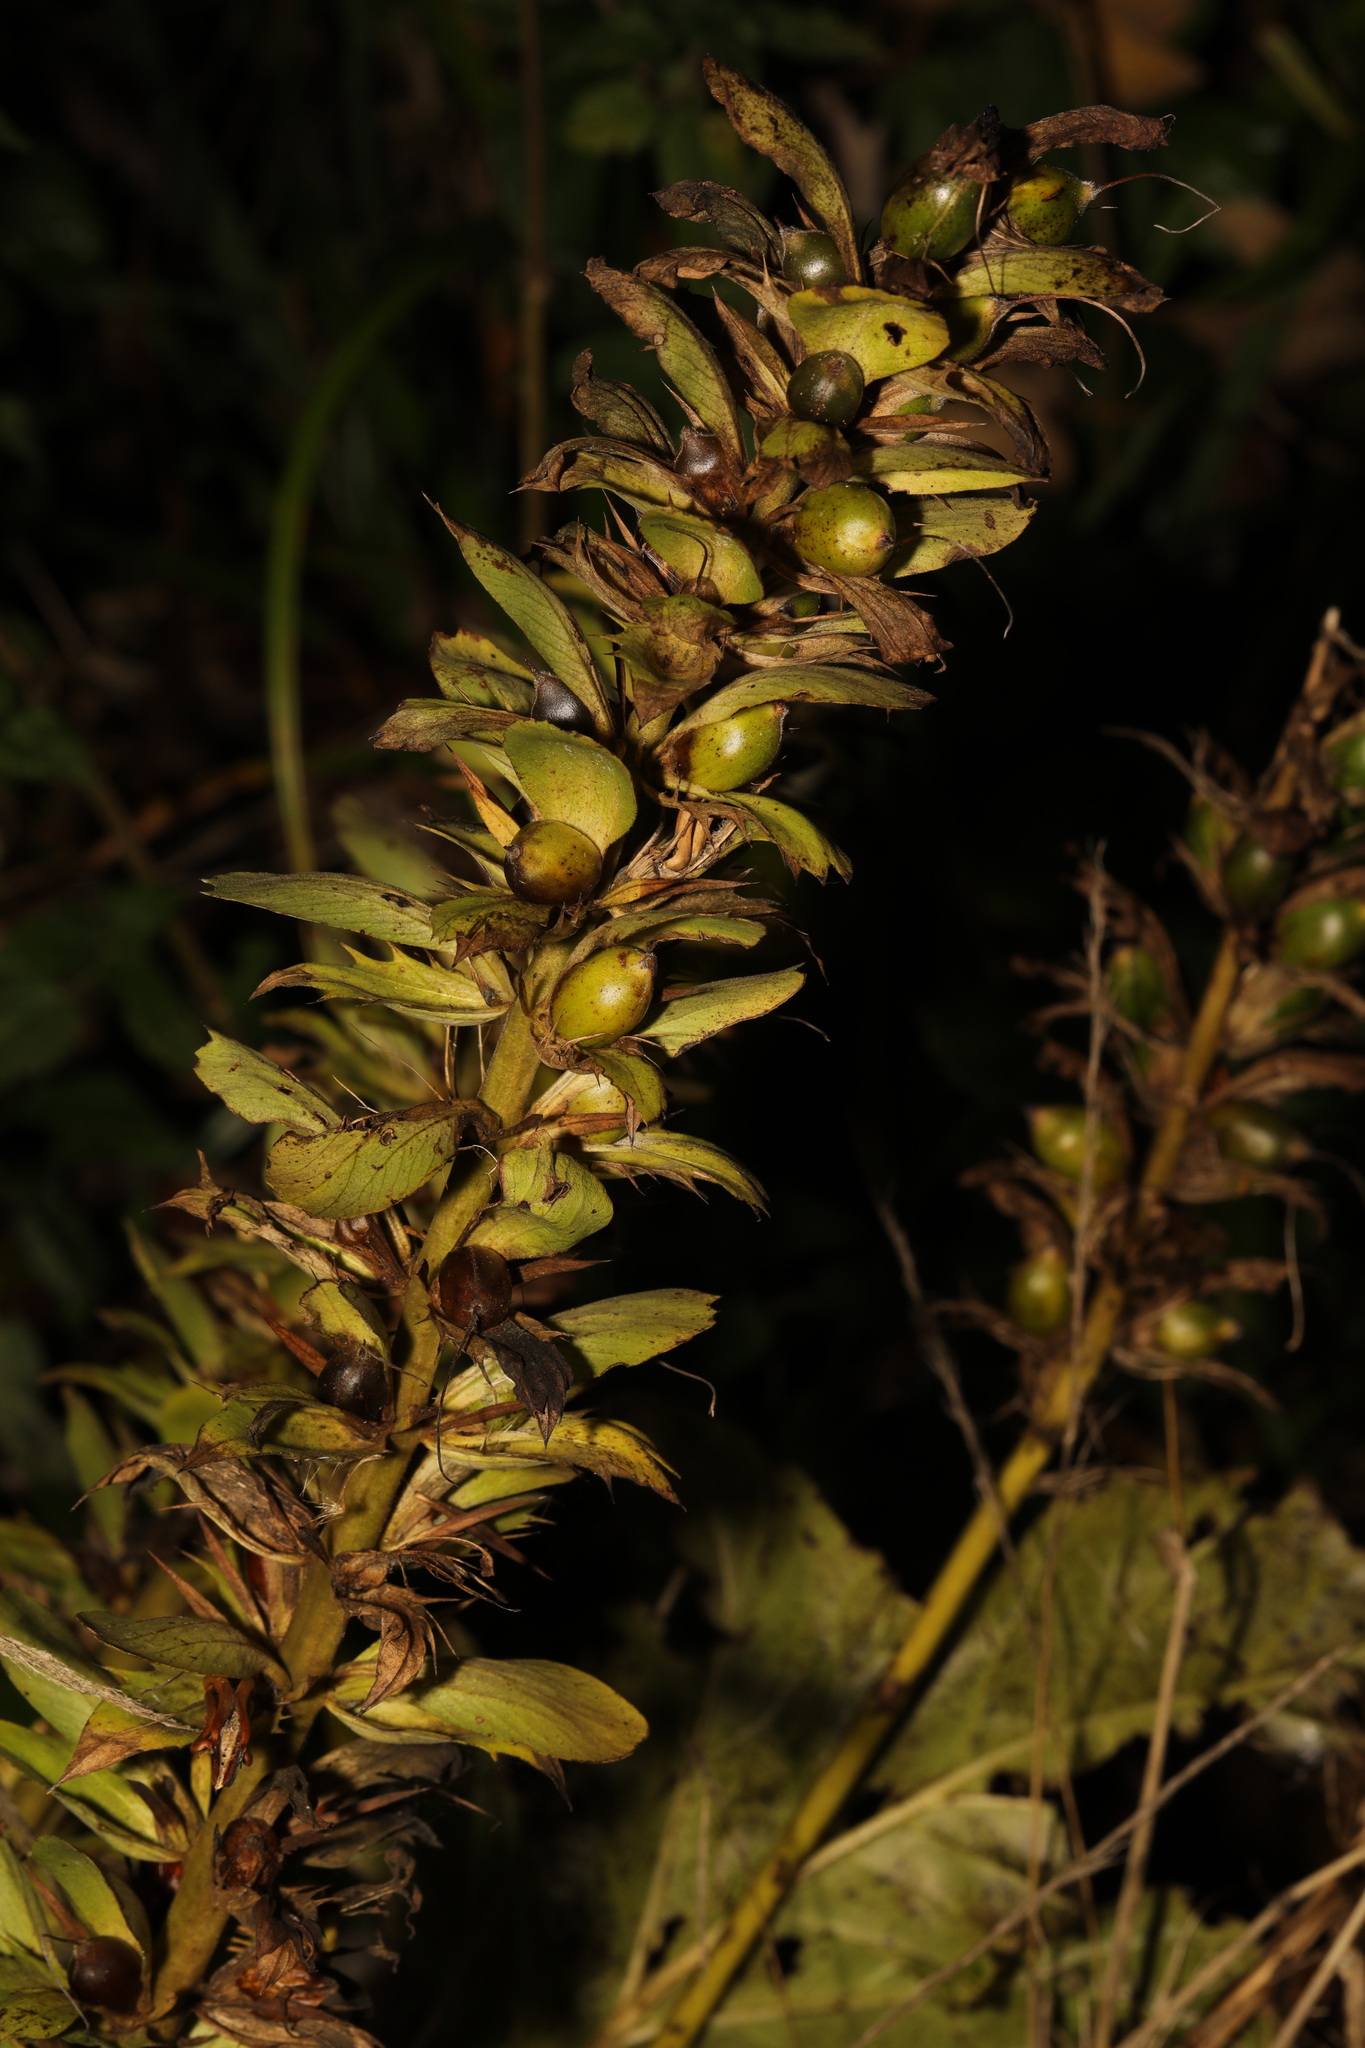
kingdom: Plantae
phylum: Tracheophyta
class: Magnoliopsida
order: Lamiales
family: Acanthaceae
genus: Acanthus
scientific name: Acanthus mollis
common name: Bear's-breech
